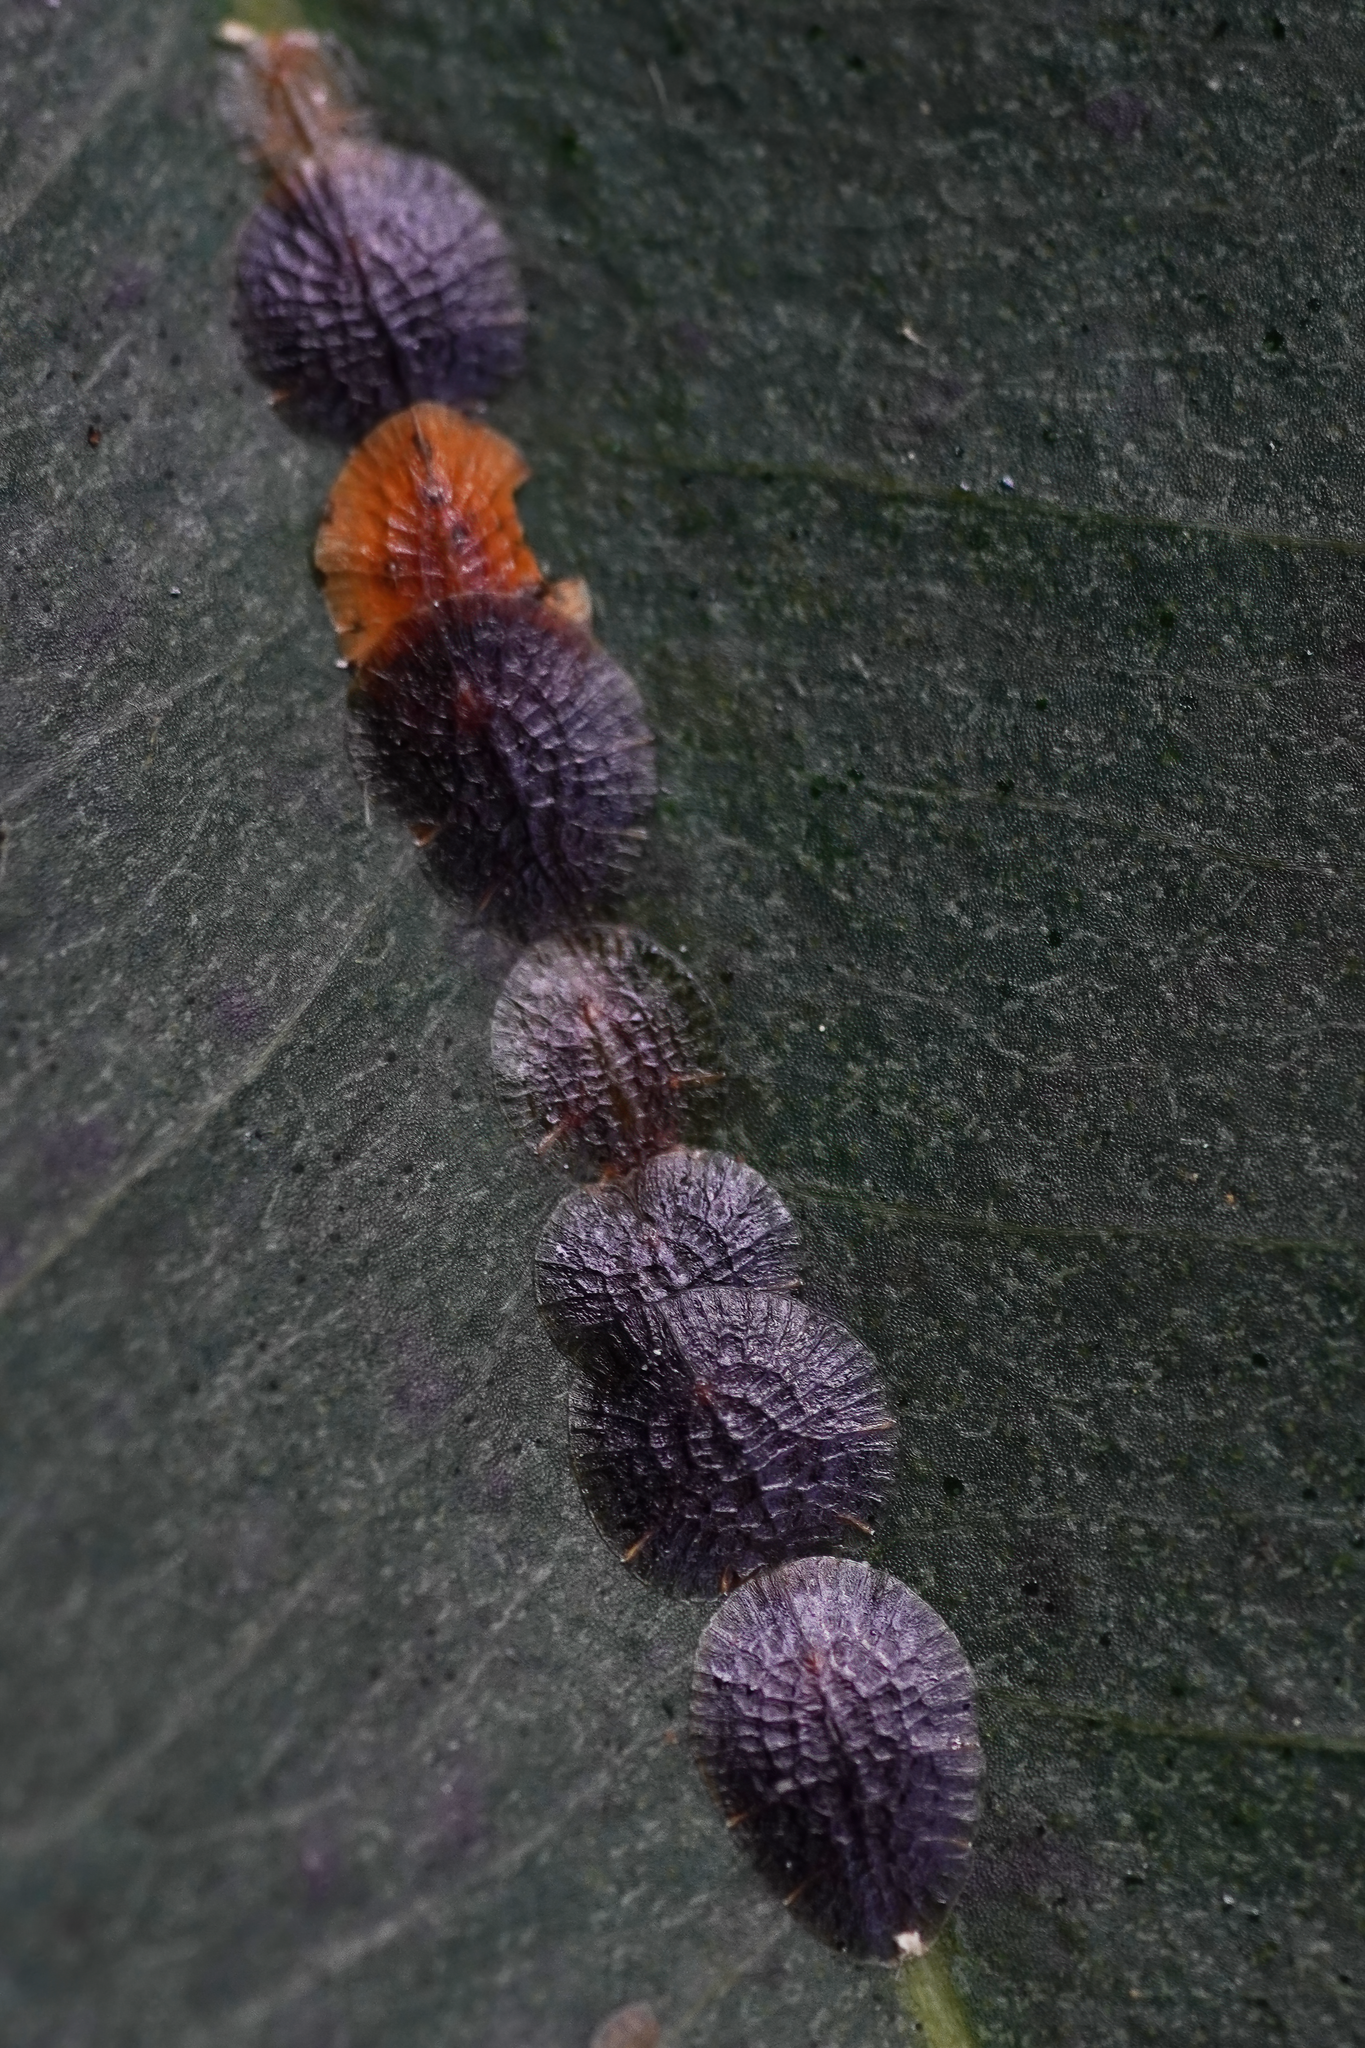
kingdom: Animalia
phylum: Arthropoda
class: Insecta
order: Hemiptera
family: Coccidae
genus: Eucalymnatus
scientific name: Eucalymnatus tessellatus
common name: Tessellated scale
